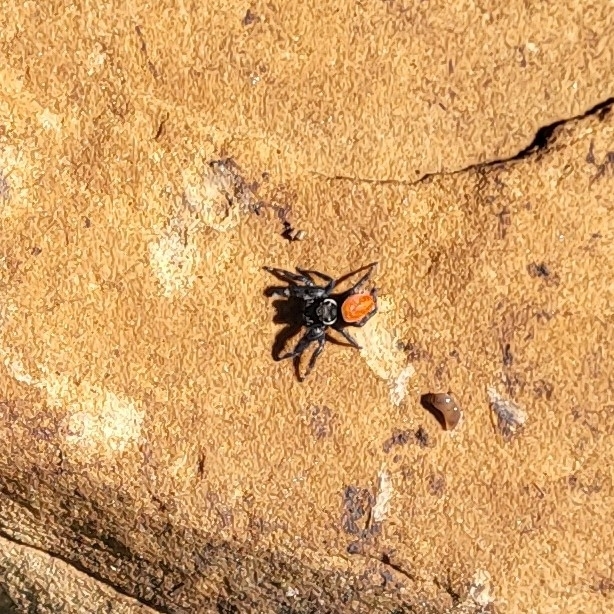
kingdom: Animalia
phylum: Arthropoda
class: Arachnida
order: Araneae
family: Salticidae
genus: Phidippus
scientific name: Phidippus carneus
